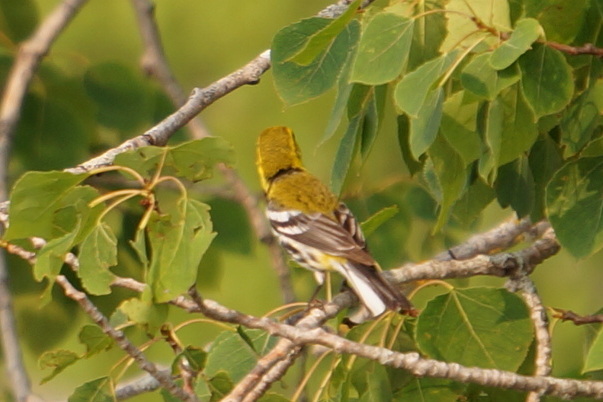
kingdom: Animalia
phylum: Chordata
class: Aves
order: Passeriformes
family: Parulidae
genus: Setophaga
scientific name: Setophaga virens
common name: Black-throated green warbler
